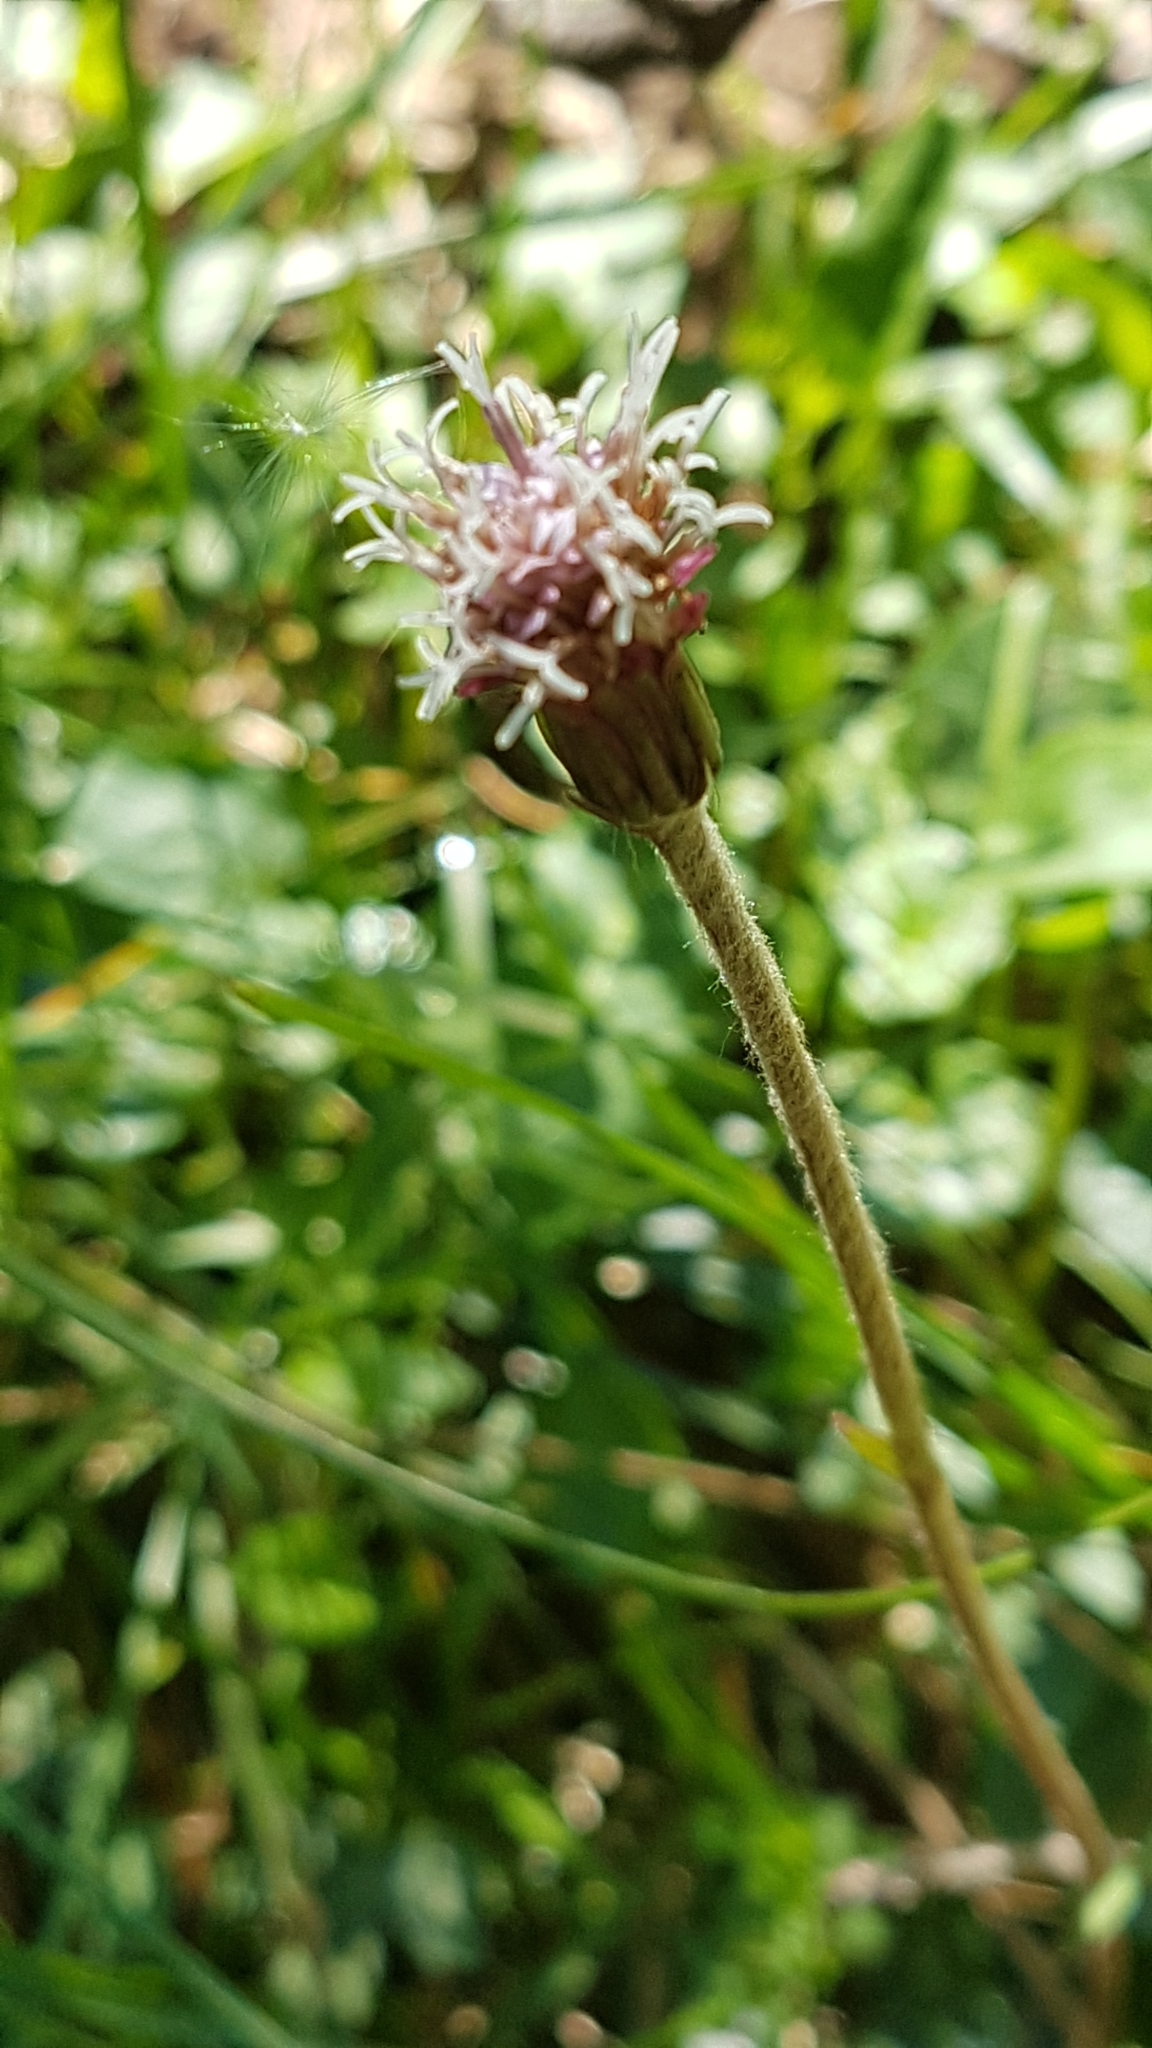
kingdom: Plantae
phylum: Tracheophyta
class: Magnoliopsida
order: Asterales
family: Asteraceae
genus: Homogyne
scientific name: Homogyne alpina
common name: Purple colt's-foot
